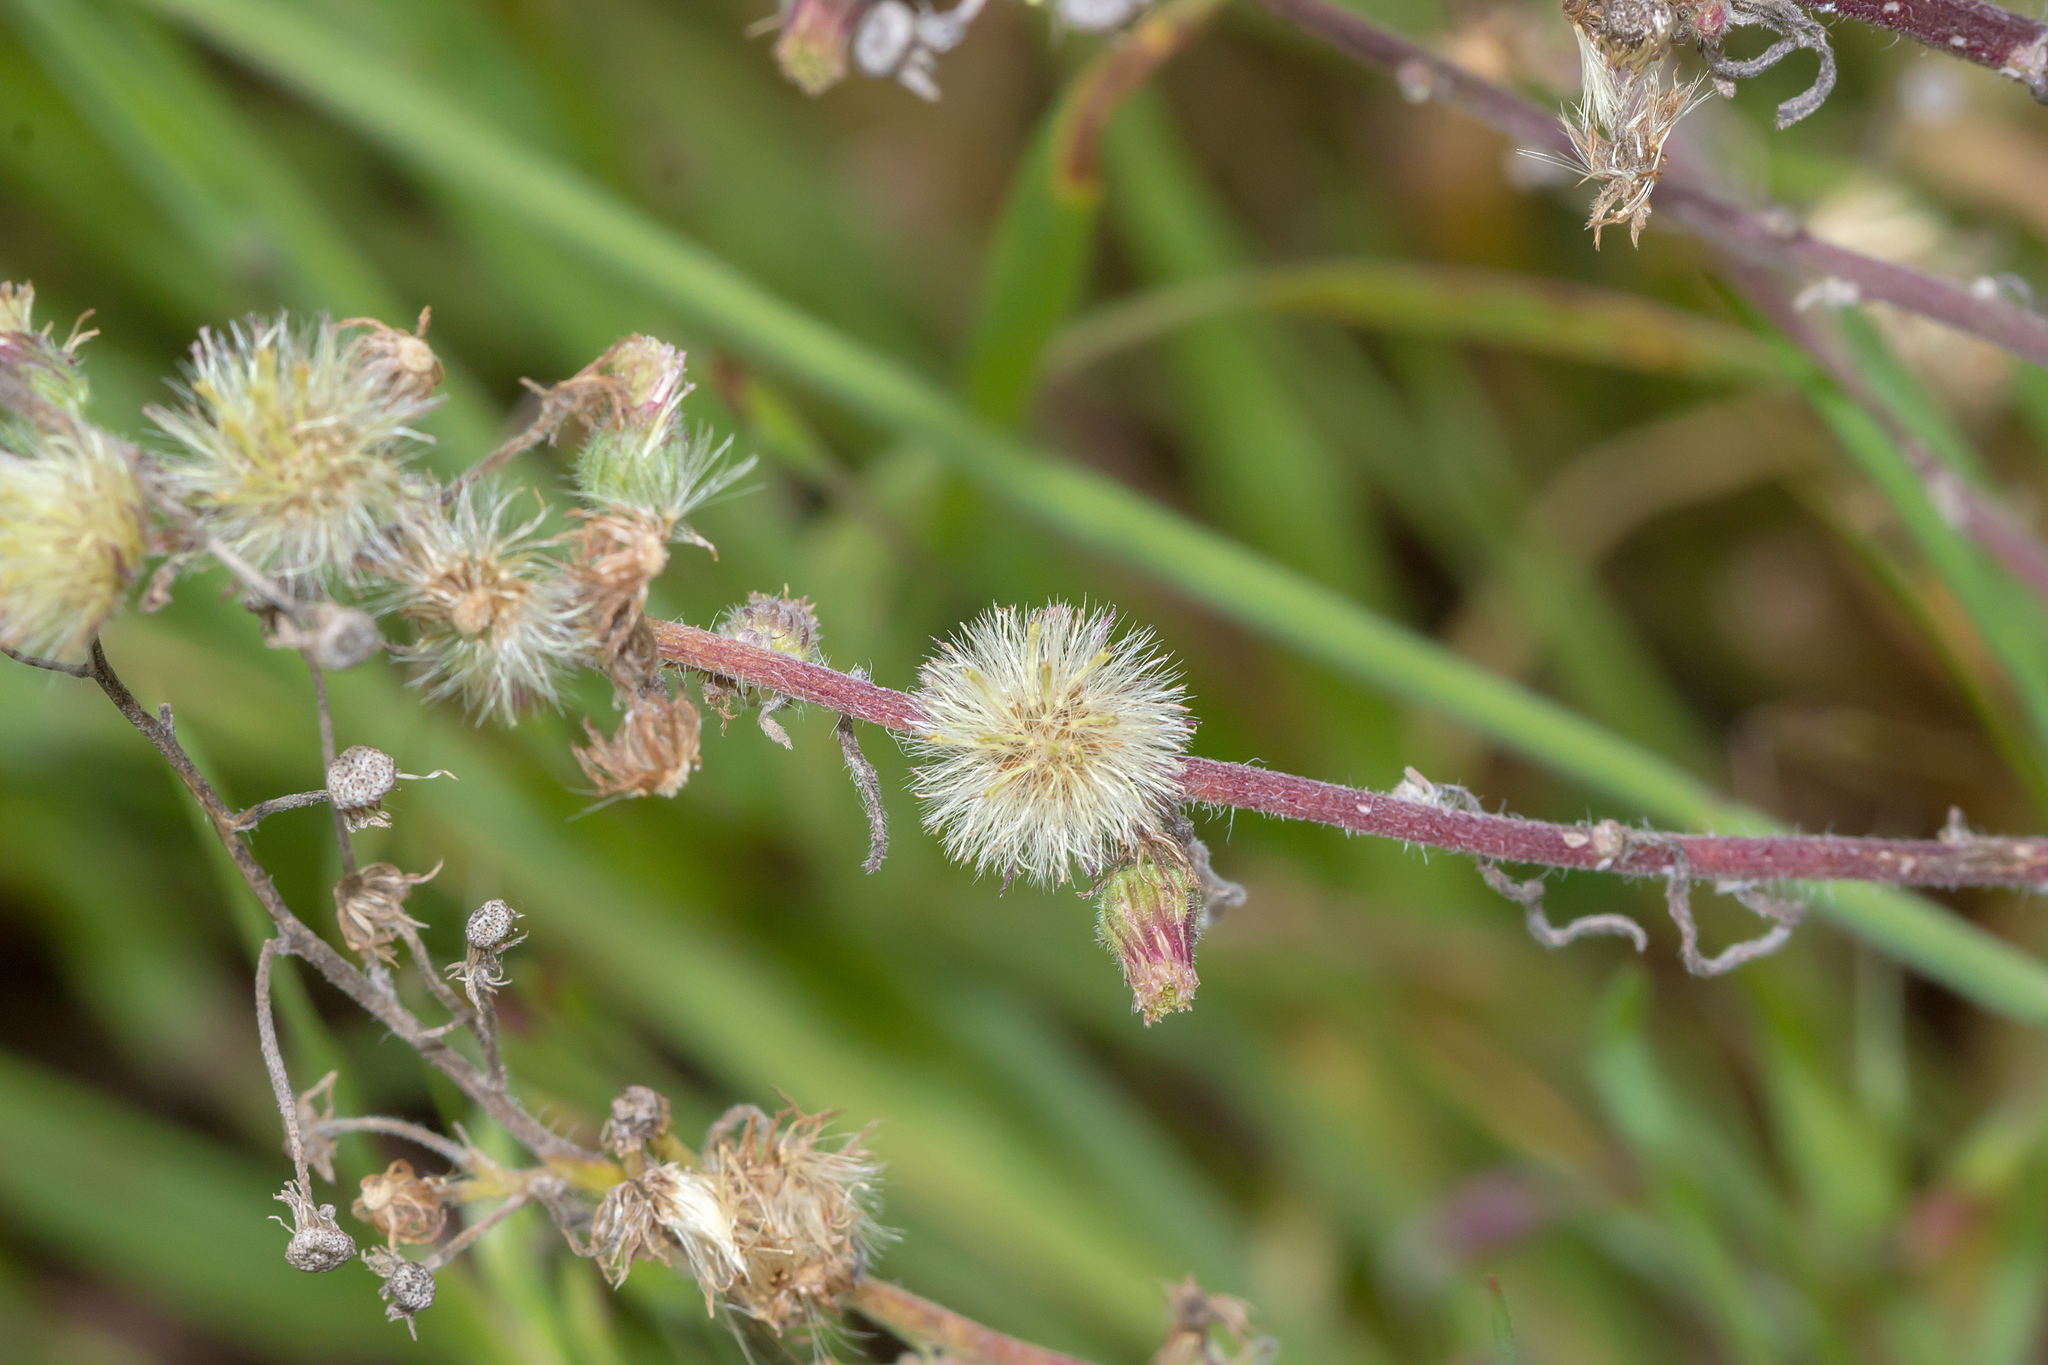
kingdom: Plantae
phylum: Tracheophyta
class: Magnoliopsida
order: Asterales
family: Asteraceae
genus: Symphyotrichum
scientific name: Symphyotrichum subulatum
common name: Annual saltmarsh aster
